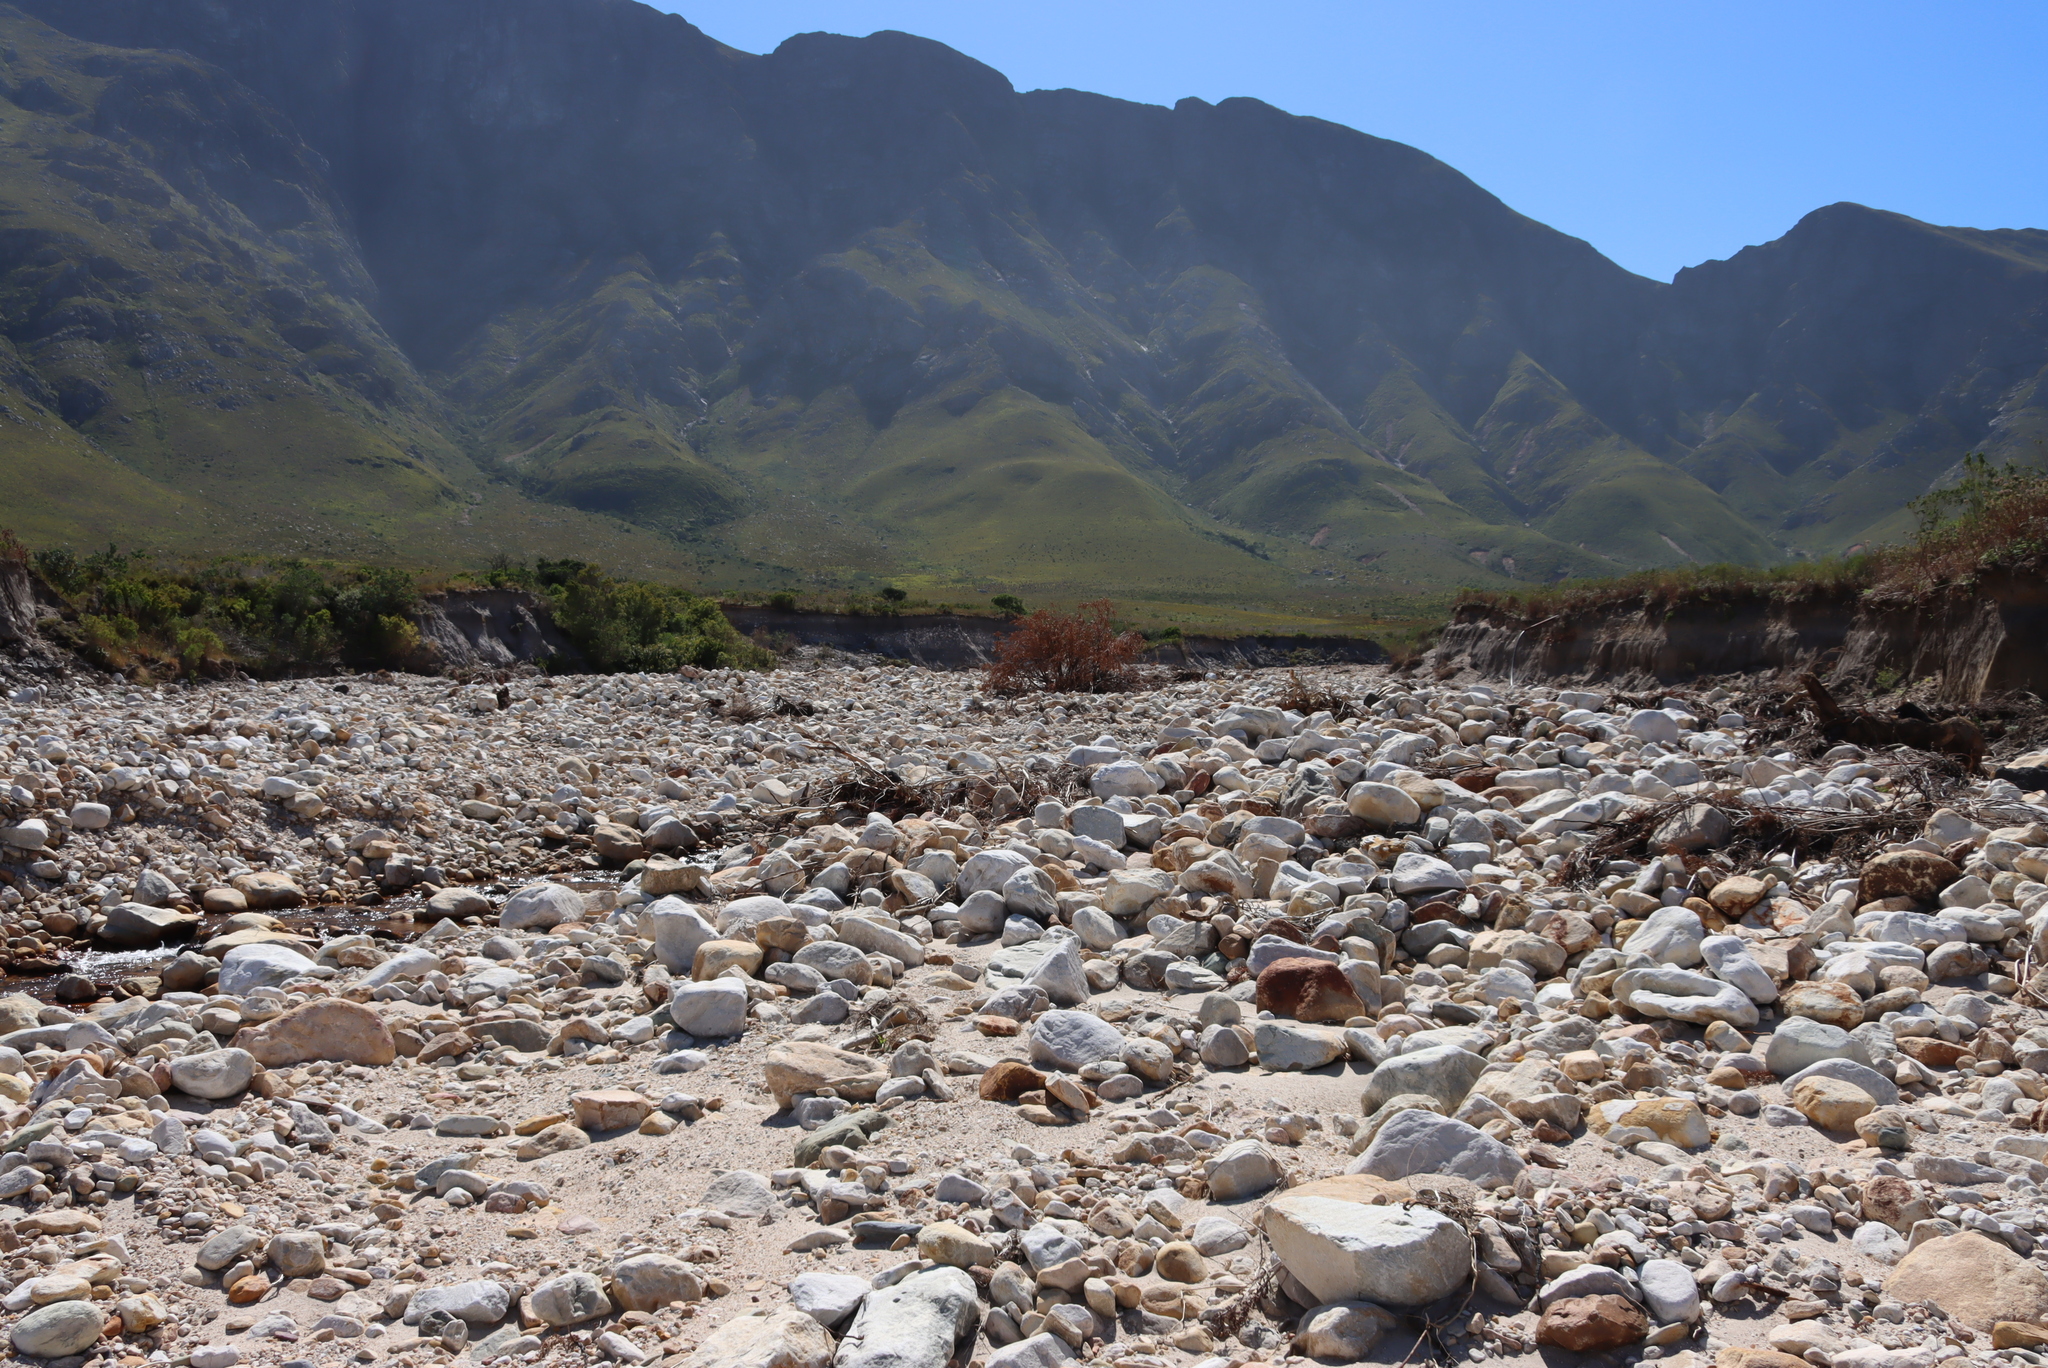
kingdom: Plantae
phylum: Tracheophyta
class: Magnoliopsida
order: Proteales
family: Proteaceae
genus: Brabejum
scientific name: Brabejum stellatifolium
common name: Wild almond
